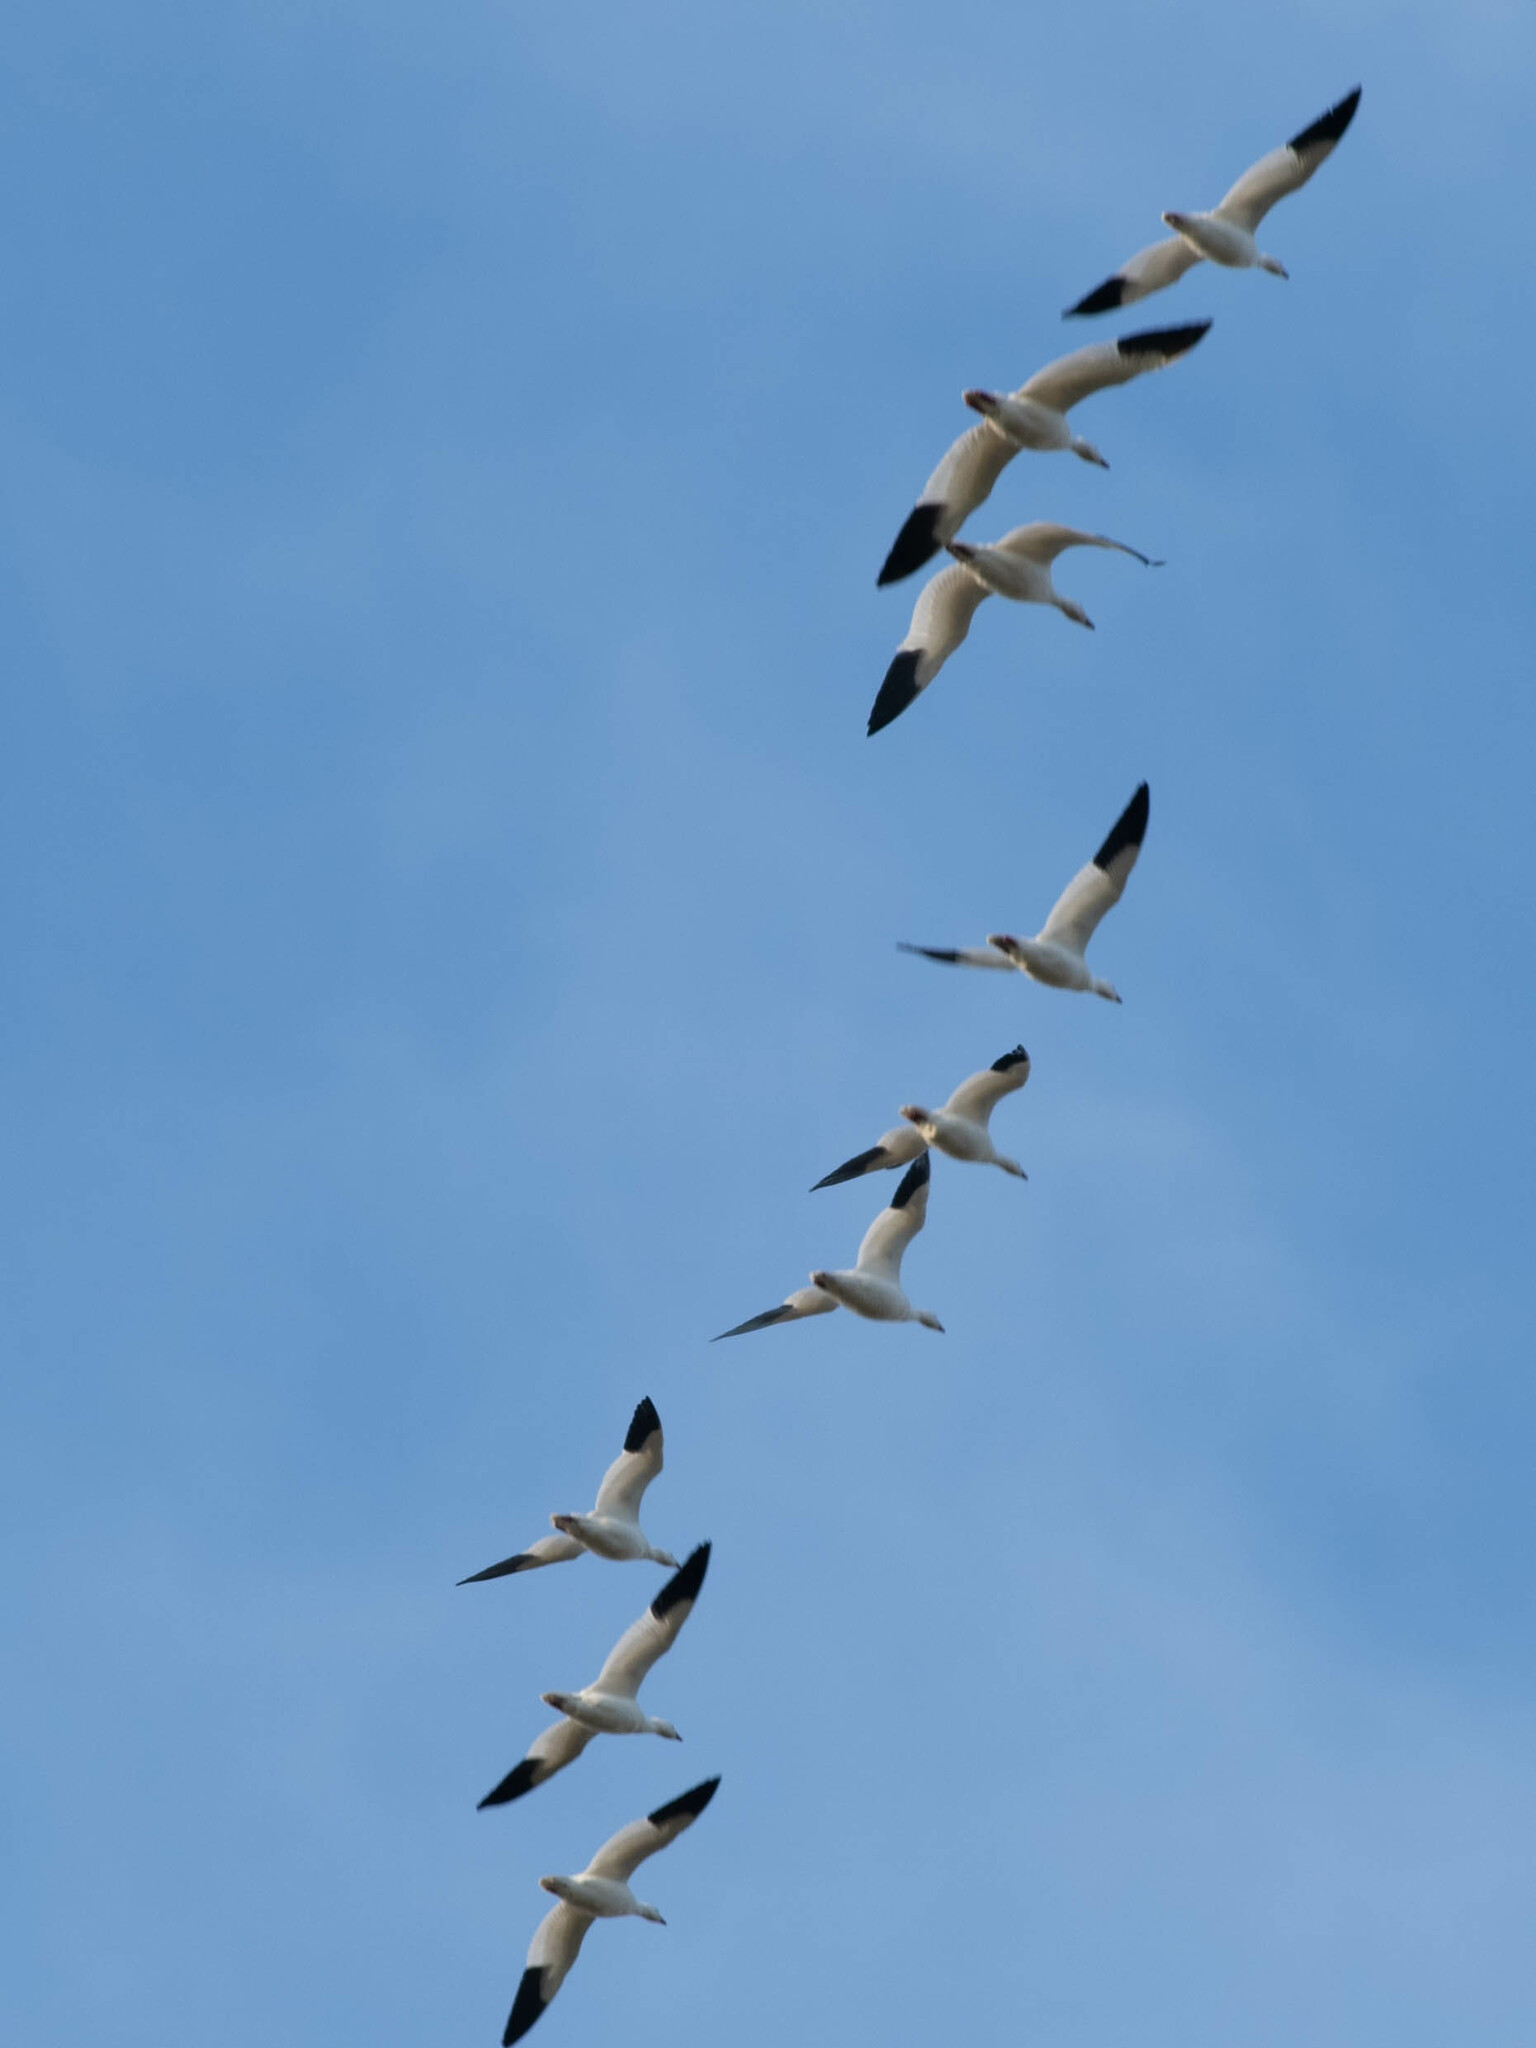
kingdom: Animalia
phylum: Chordata
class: Aves
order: Anseriformes
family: Anatidae
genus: Anser
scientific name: Anser caerulescens
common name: Snow goose
